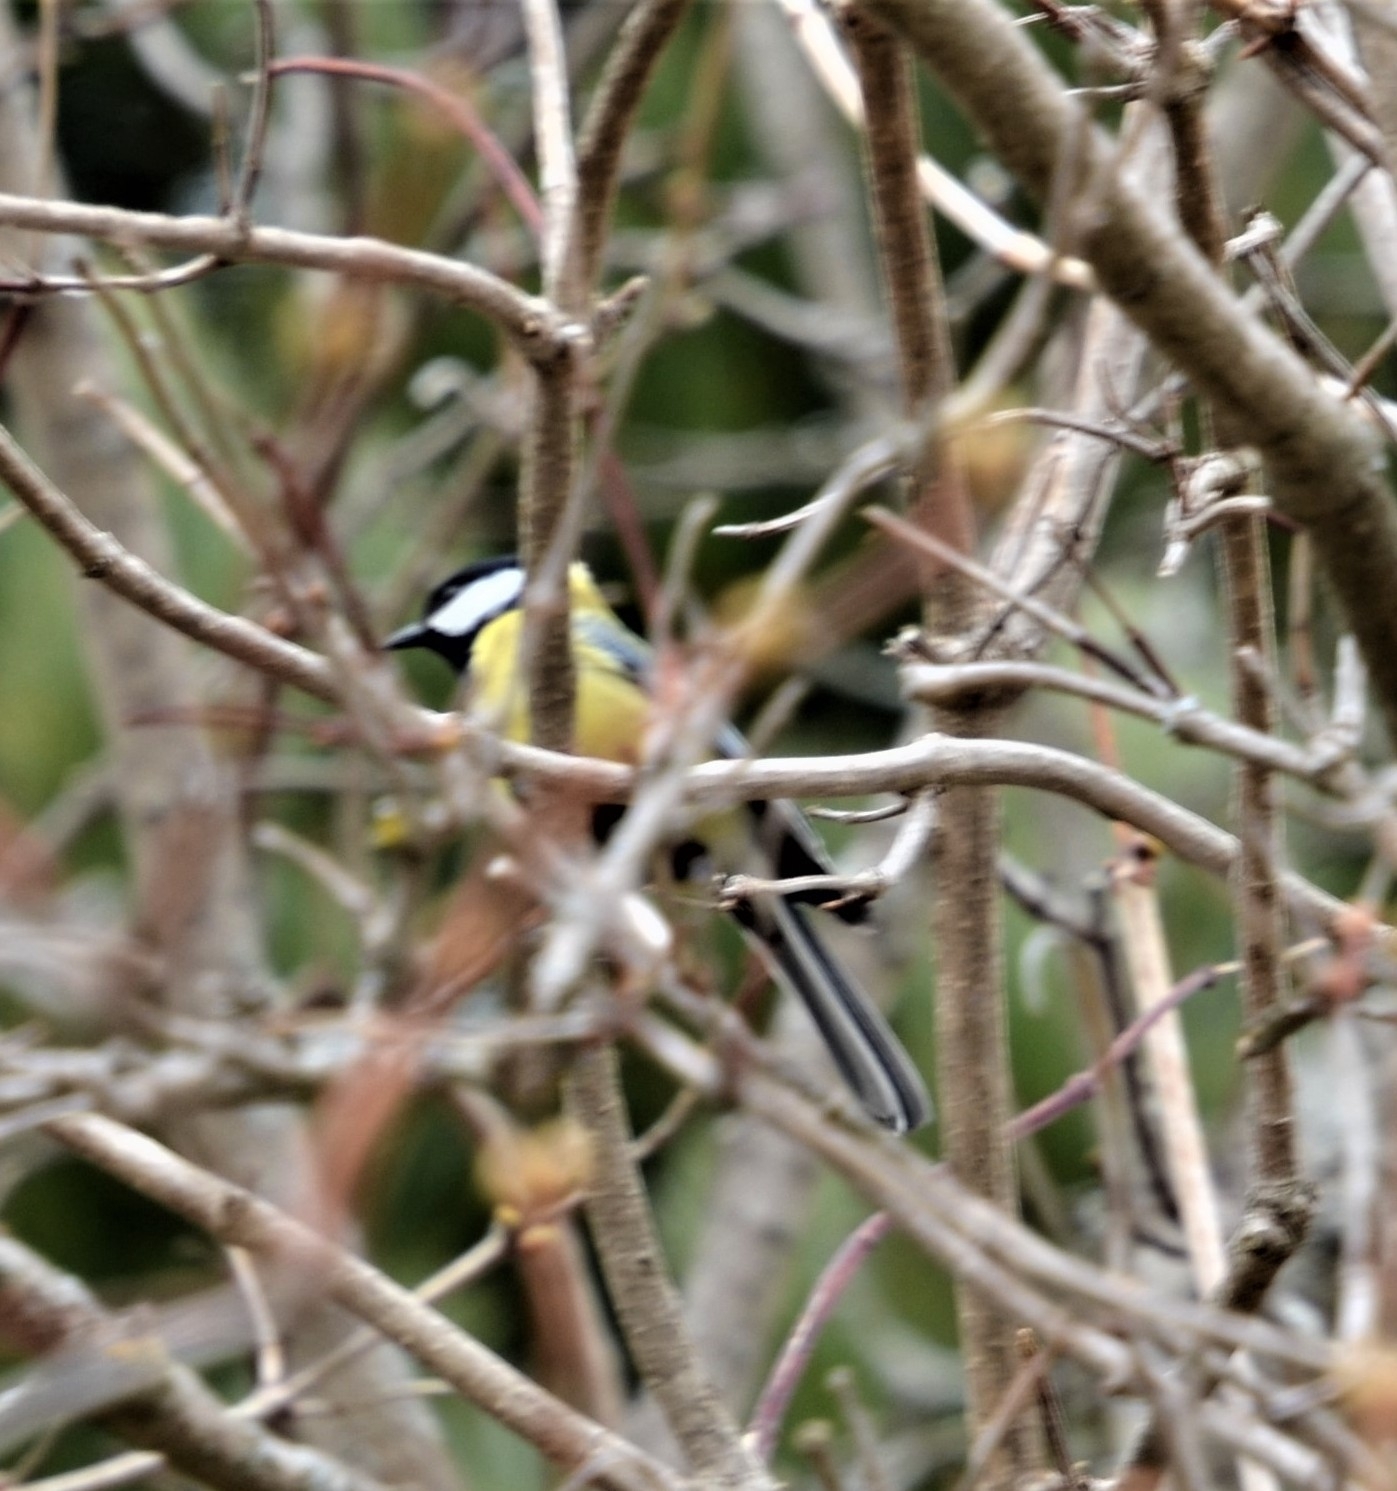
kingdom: Animalia
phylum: Chordata
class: Aves
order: Passeriformes
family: Paridae
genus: Parus
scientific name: Parus major
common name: Great tit
